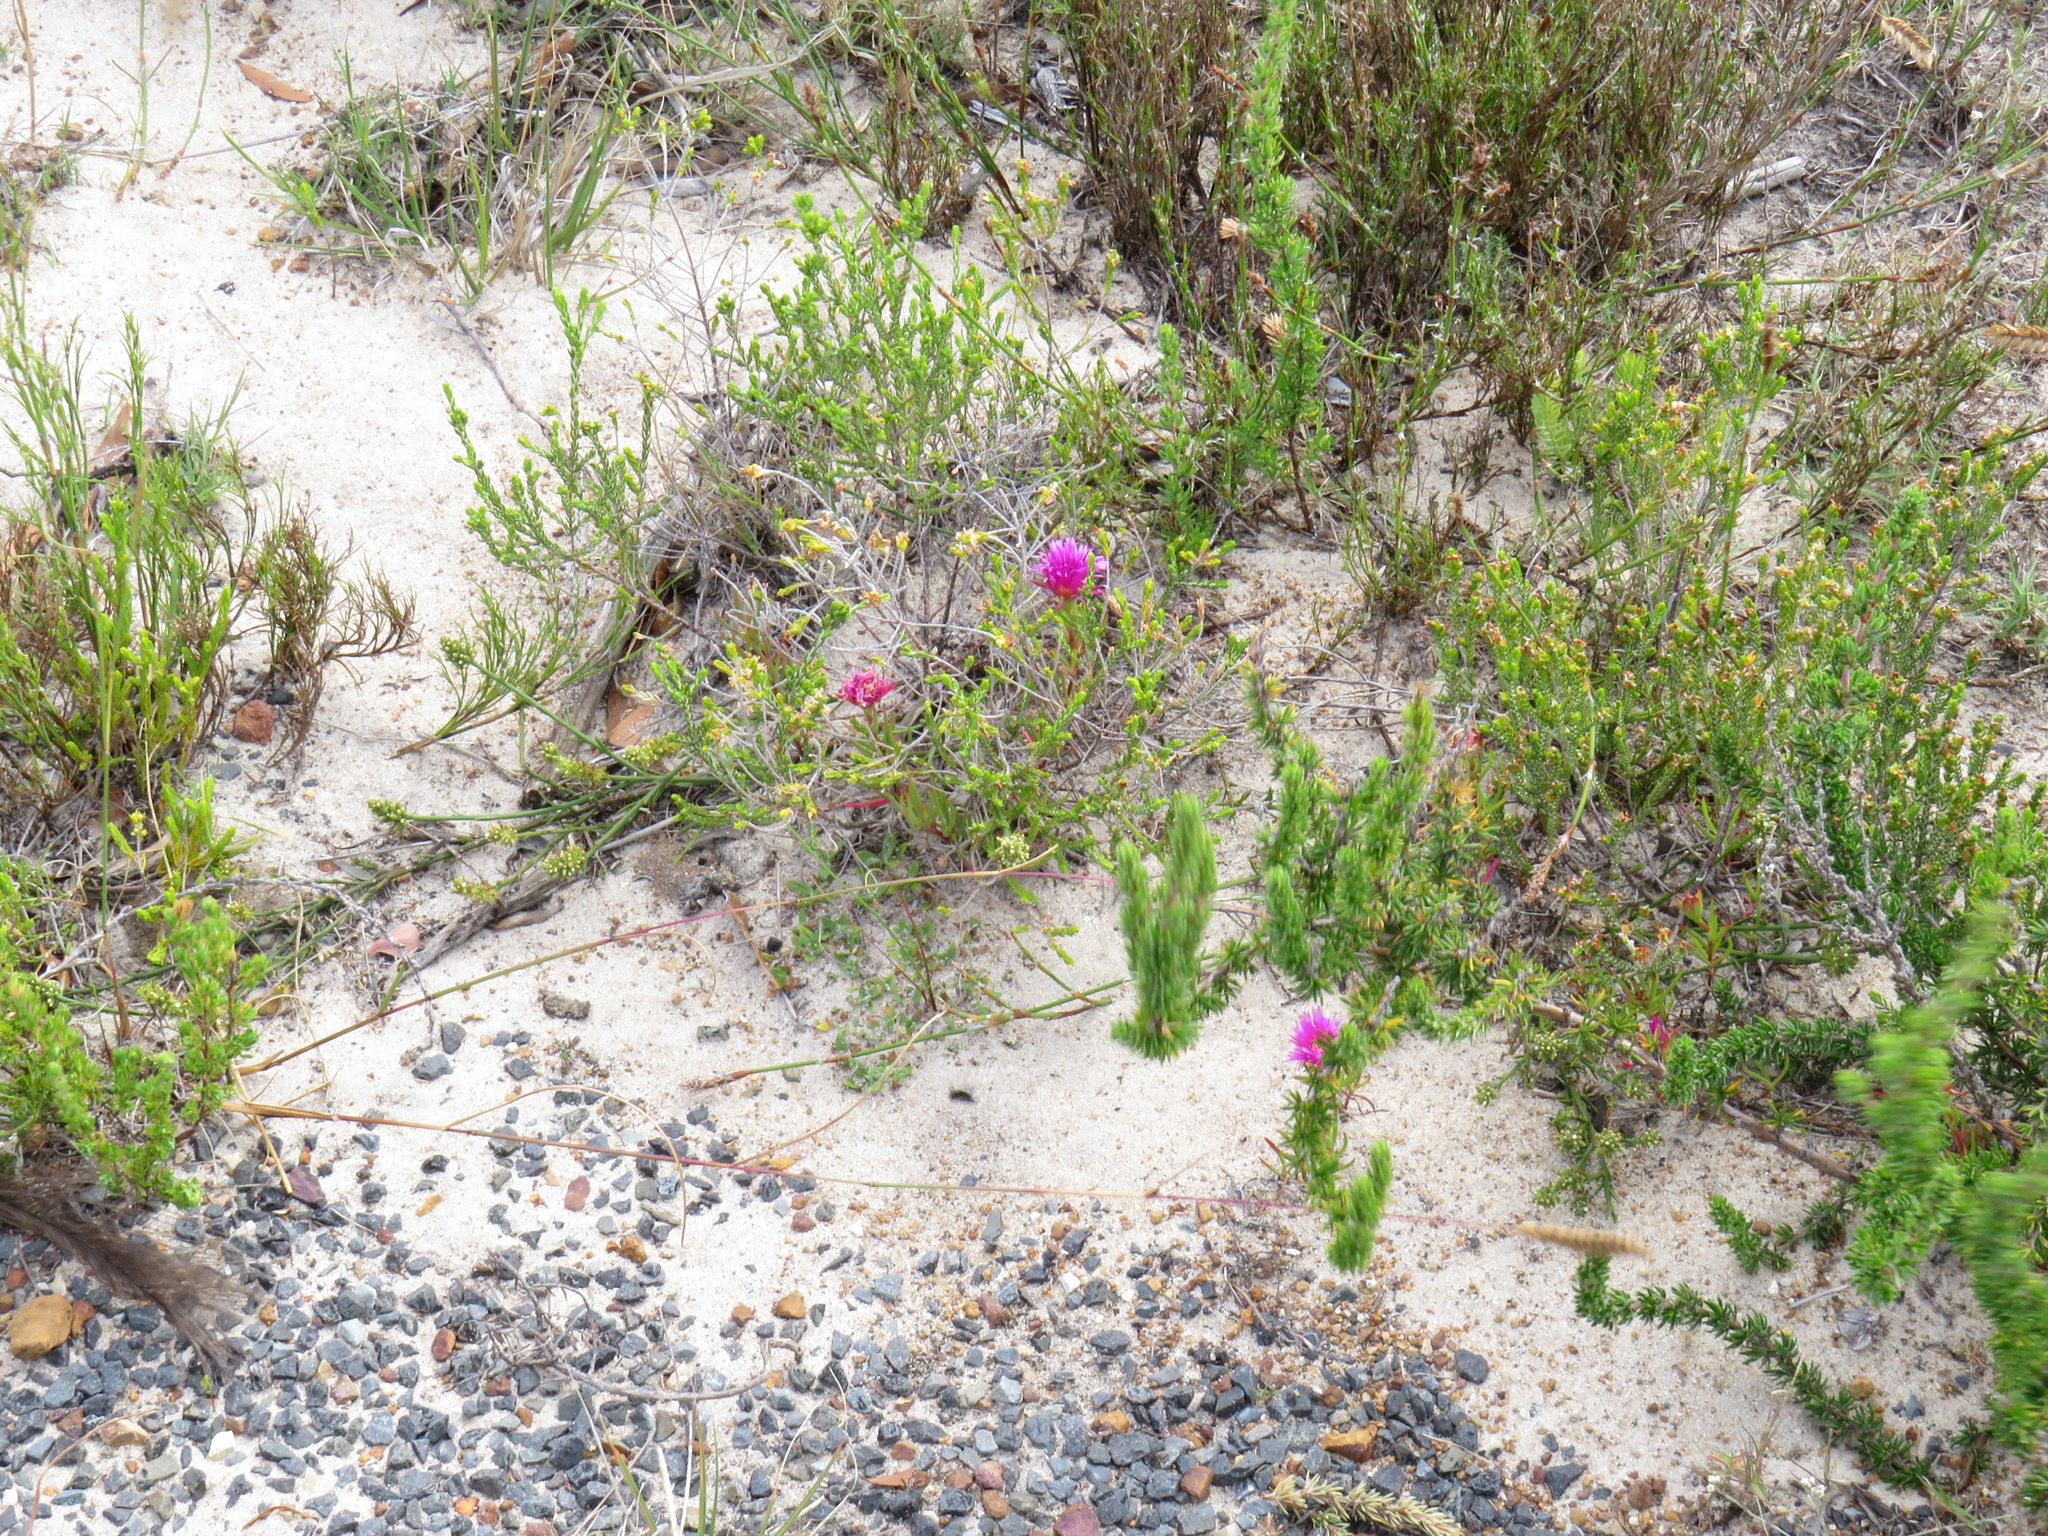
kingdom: Plantae
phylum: Tracheophyta
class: Magnoliopsida
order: Caryophyllales
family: Aizoaceae
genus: Lampranthus
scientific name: Lampranthus tenuifolius
